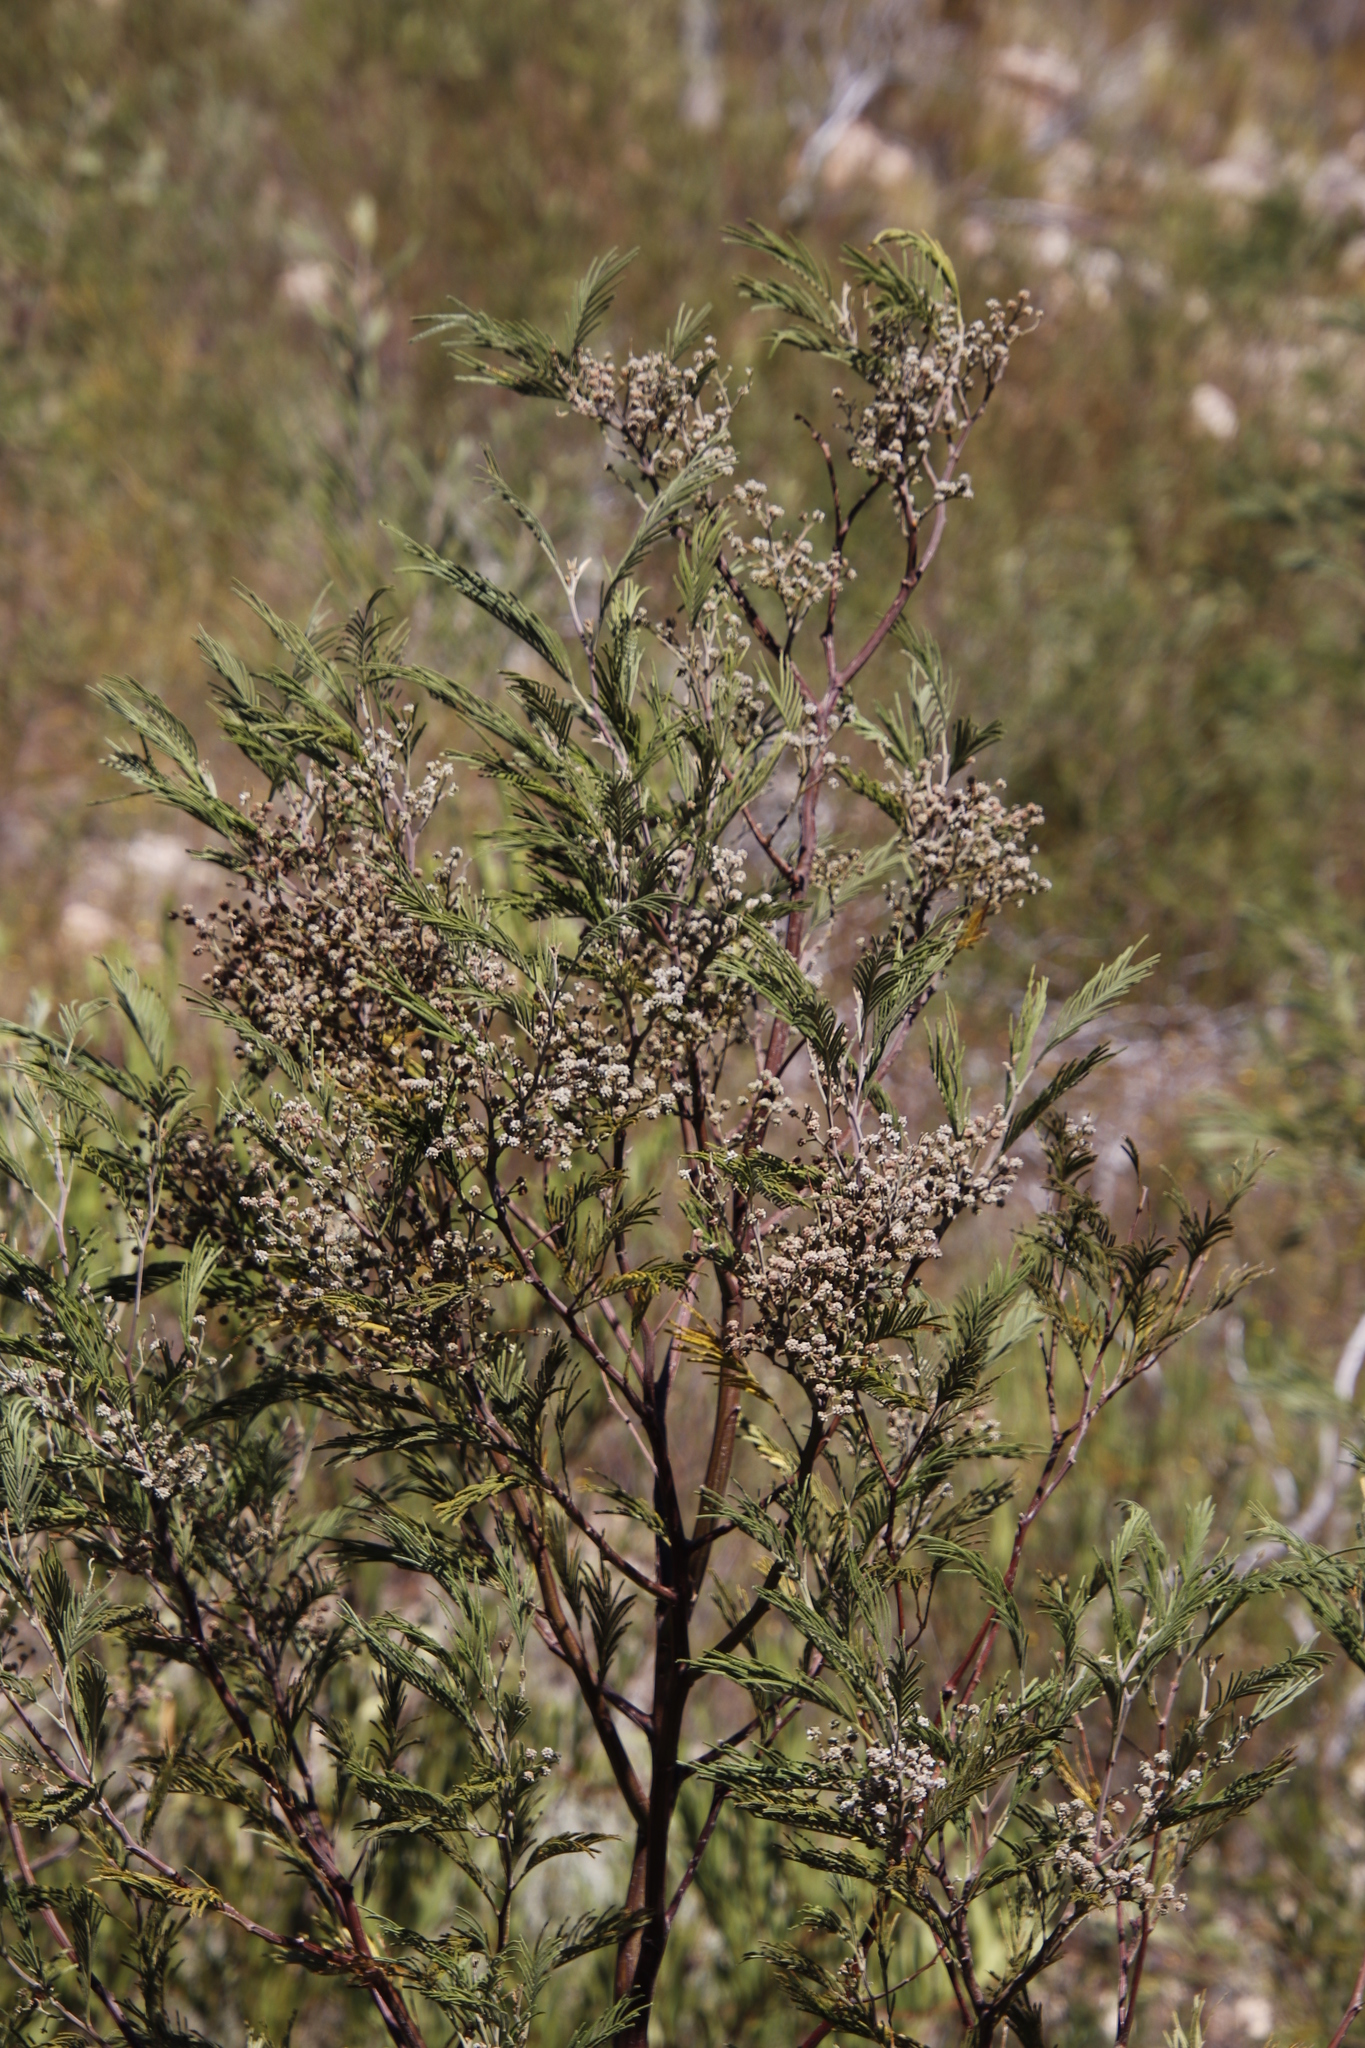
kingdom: Animalia
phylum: Arthropoda
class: Insecta
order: Diptera
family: Cecidomyiidae
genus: Dasineura
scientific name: Dasineura rubiformis
